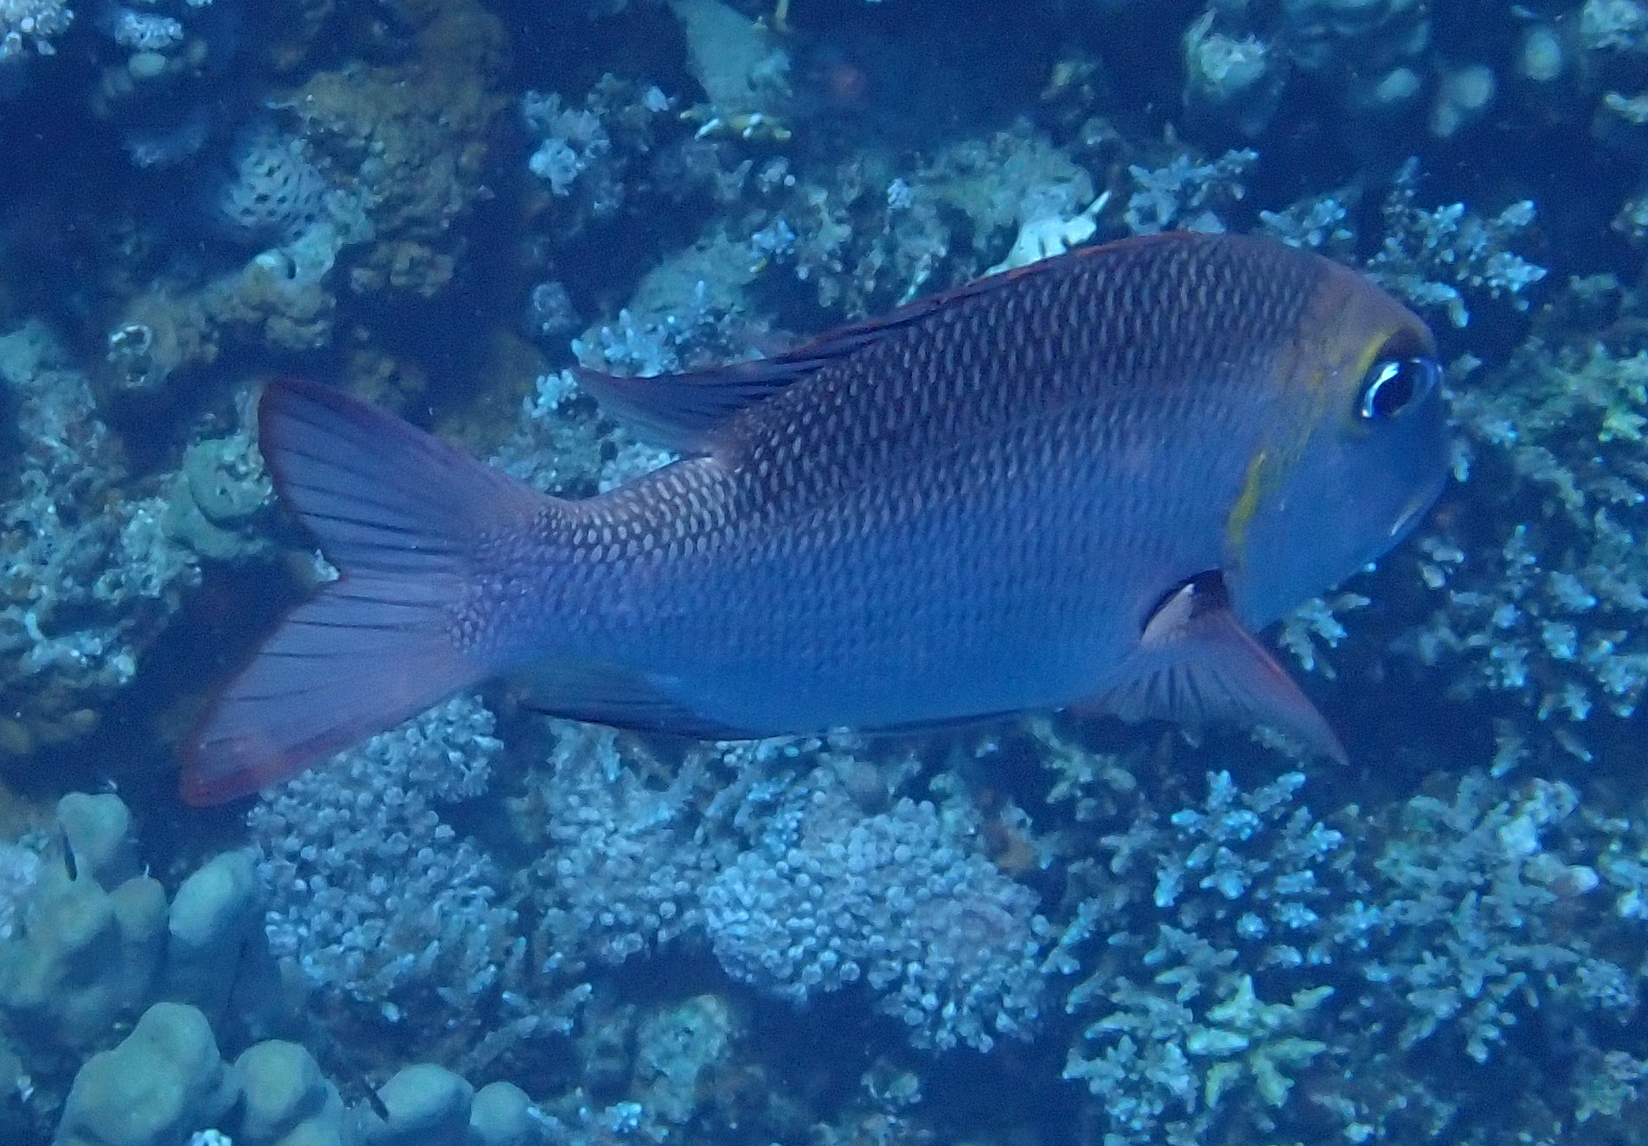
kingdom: Animalia
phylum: Chordata
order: Perciformes
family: Lethrinidae
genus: Monotaxis
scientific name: Monotaxis grandoculis
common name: Bigeye emperor
